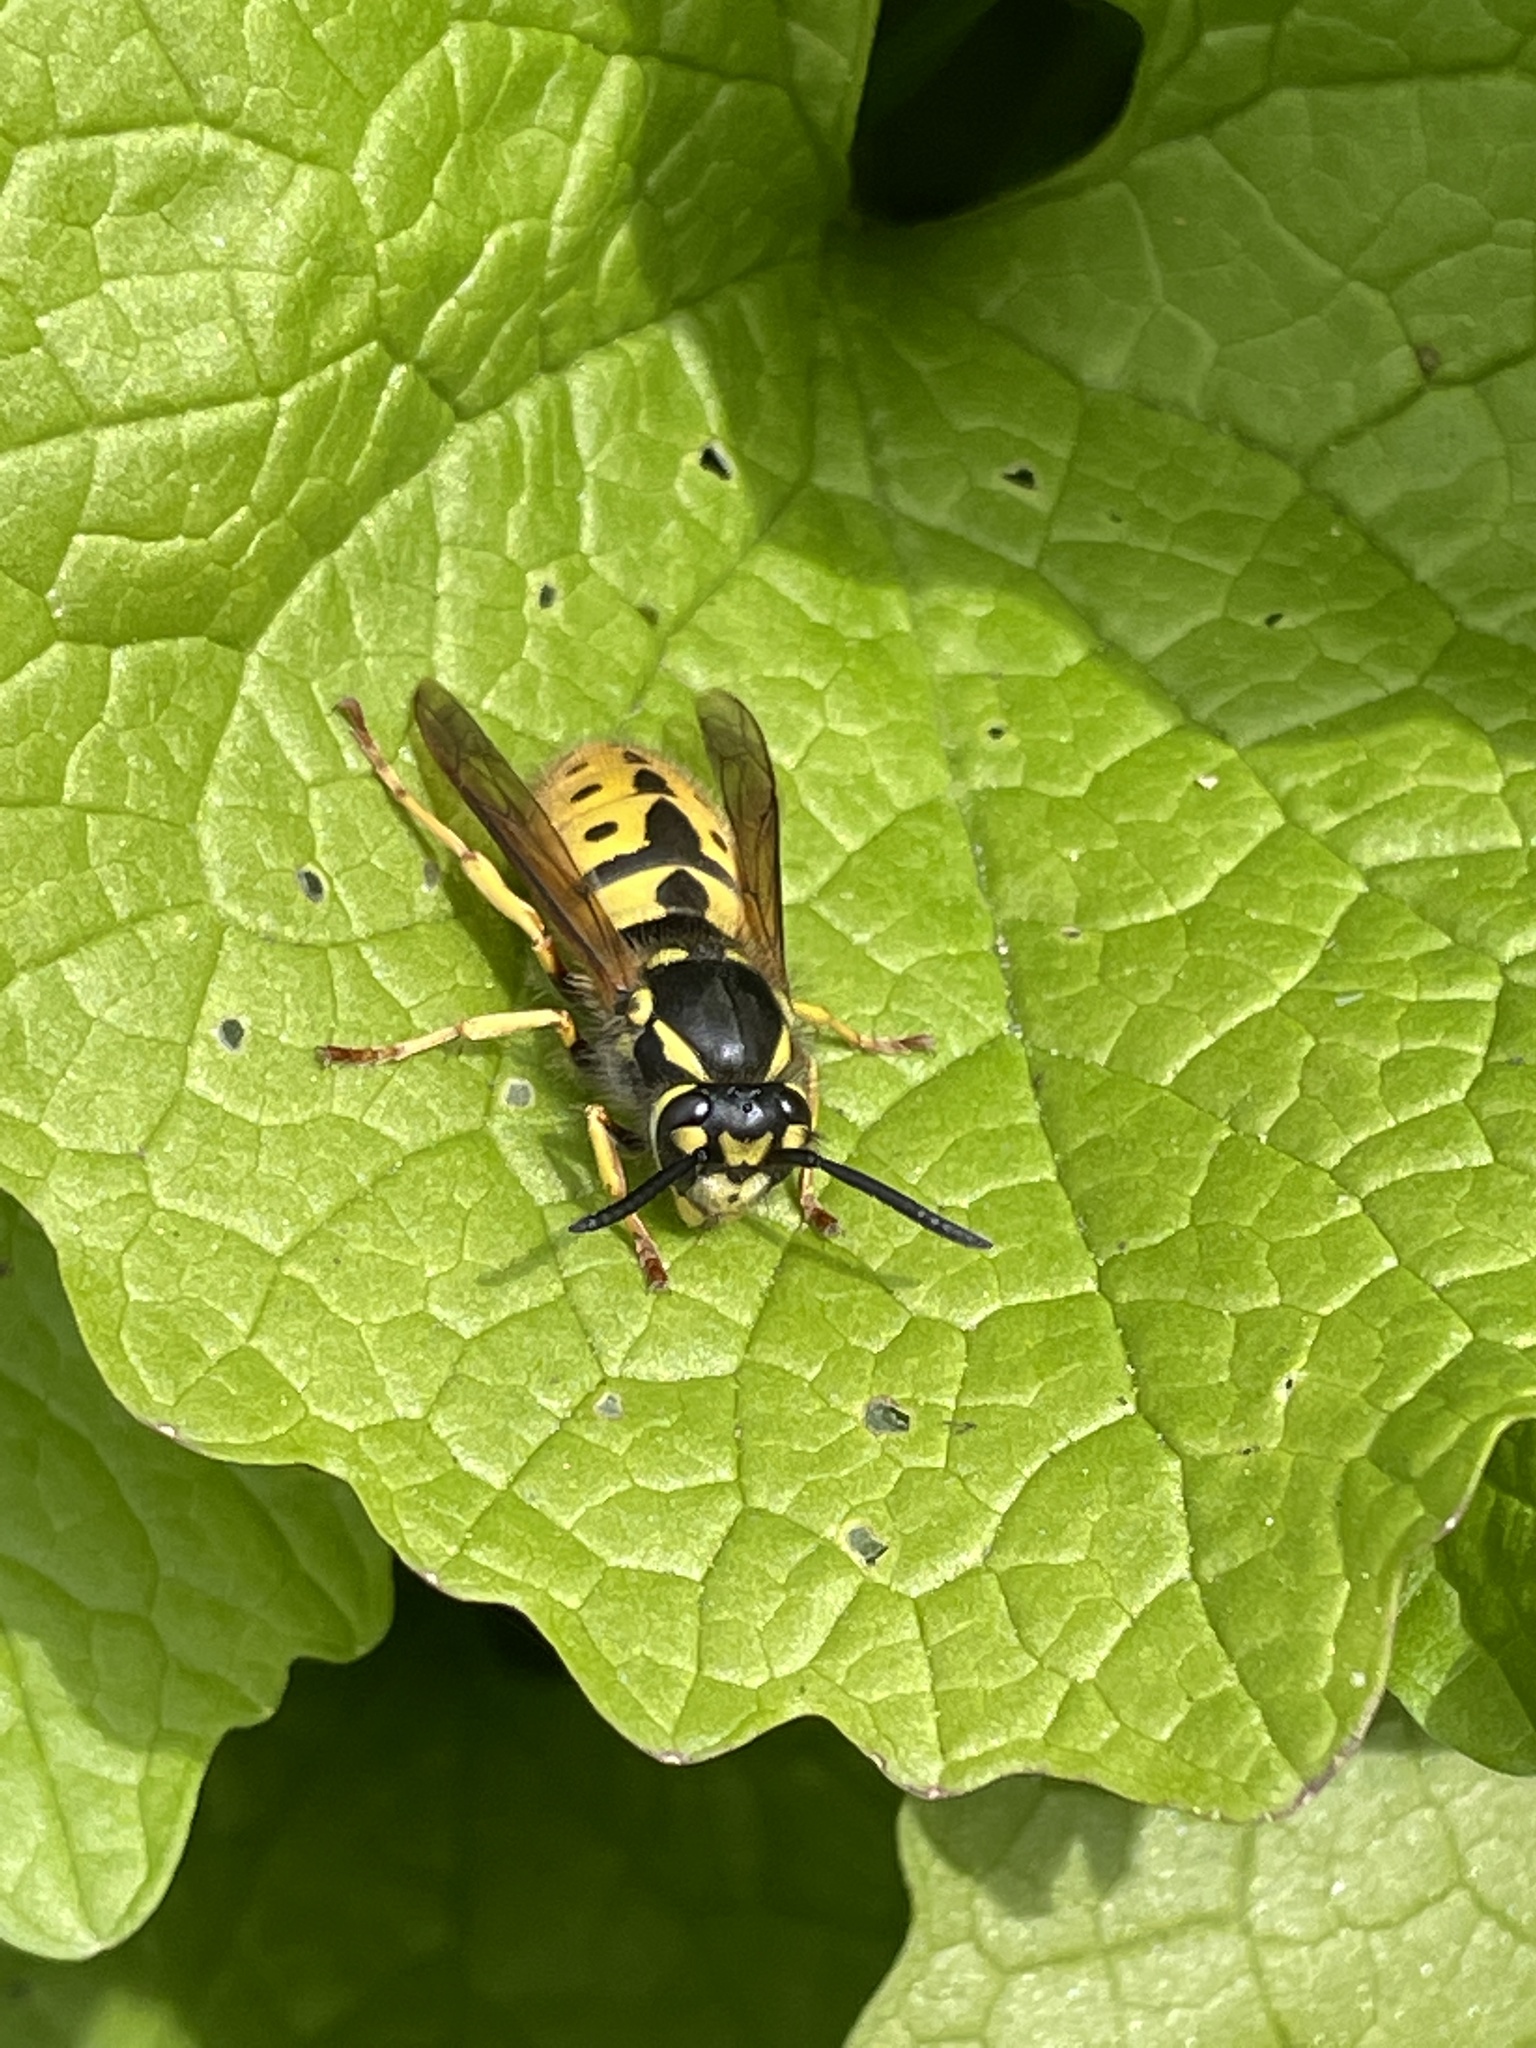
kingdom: Animalia
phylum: Arthropoda
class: Insecta
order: Hymenoptera
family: Vespidae
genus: Vespula
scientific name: Vespula germanica
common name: German wasp
